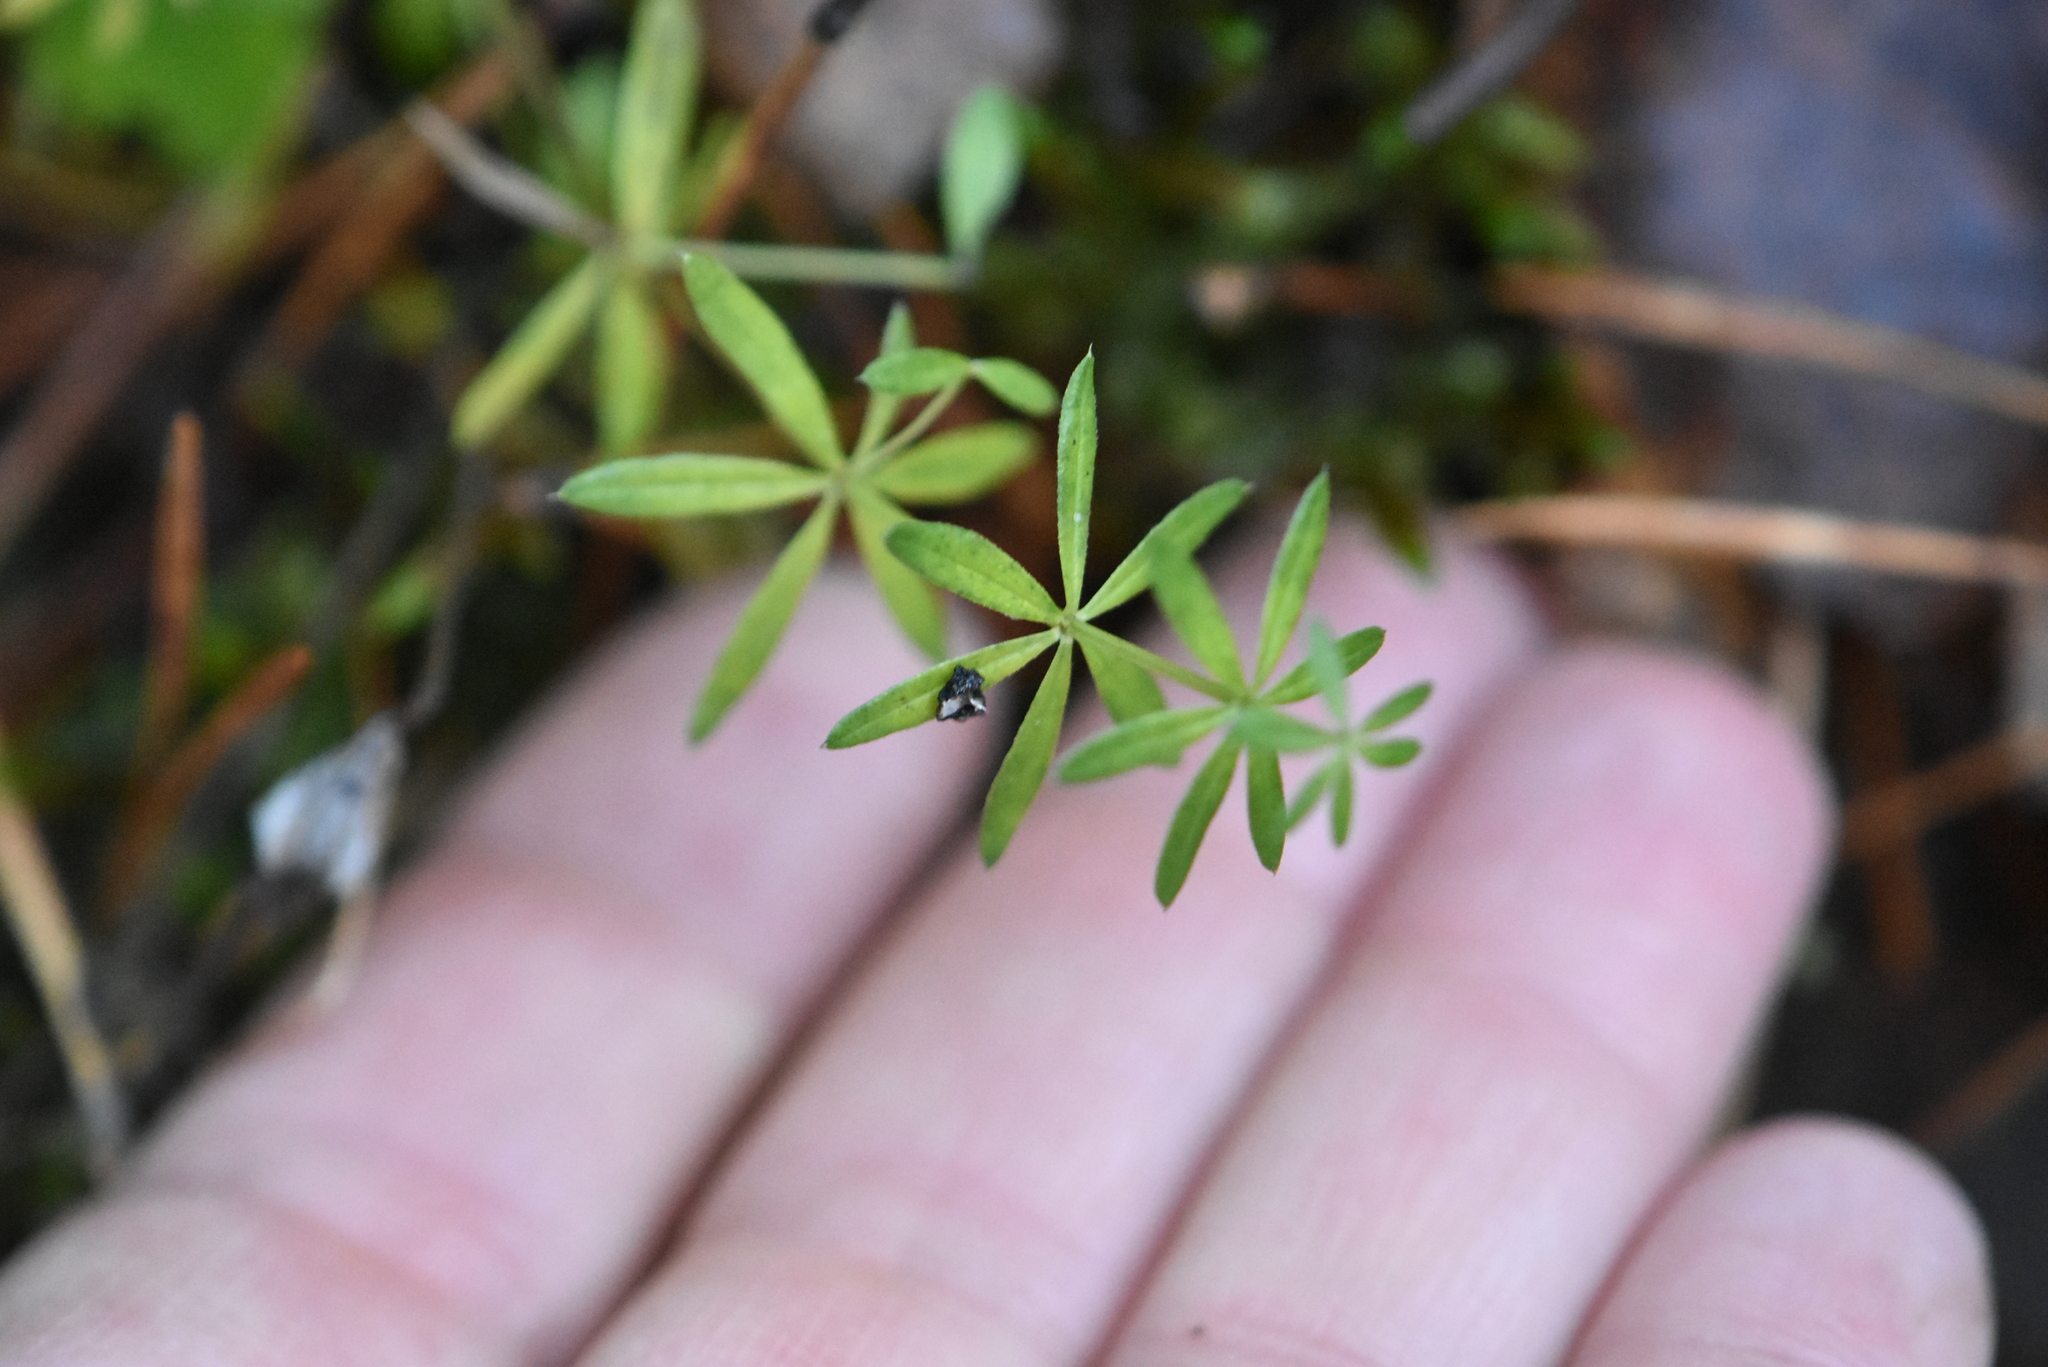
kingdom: Plantae
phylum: Tracheophyta
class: Magnoliopsida
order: Gentianales
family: Rubiaceae
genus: Galium
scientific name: Galium uliginosum
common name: Fen bedstraw
